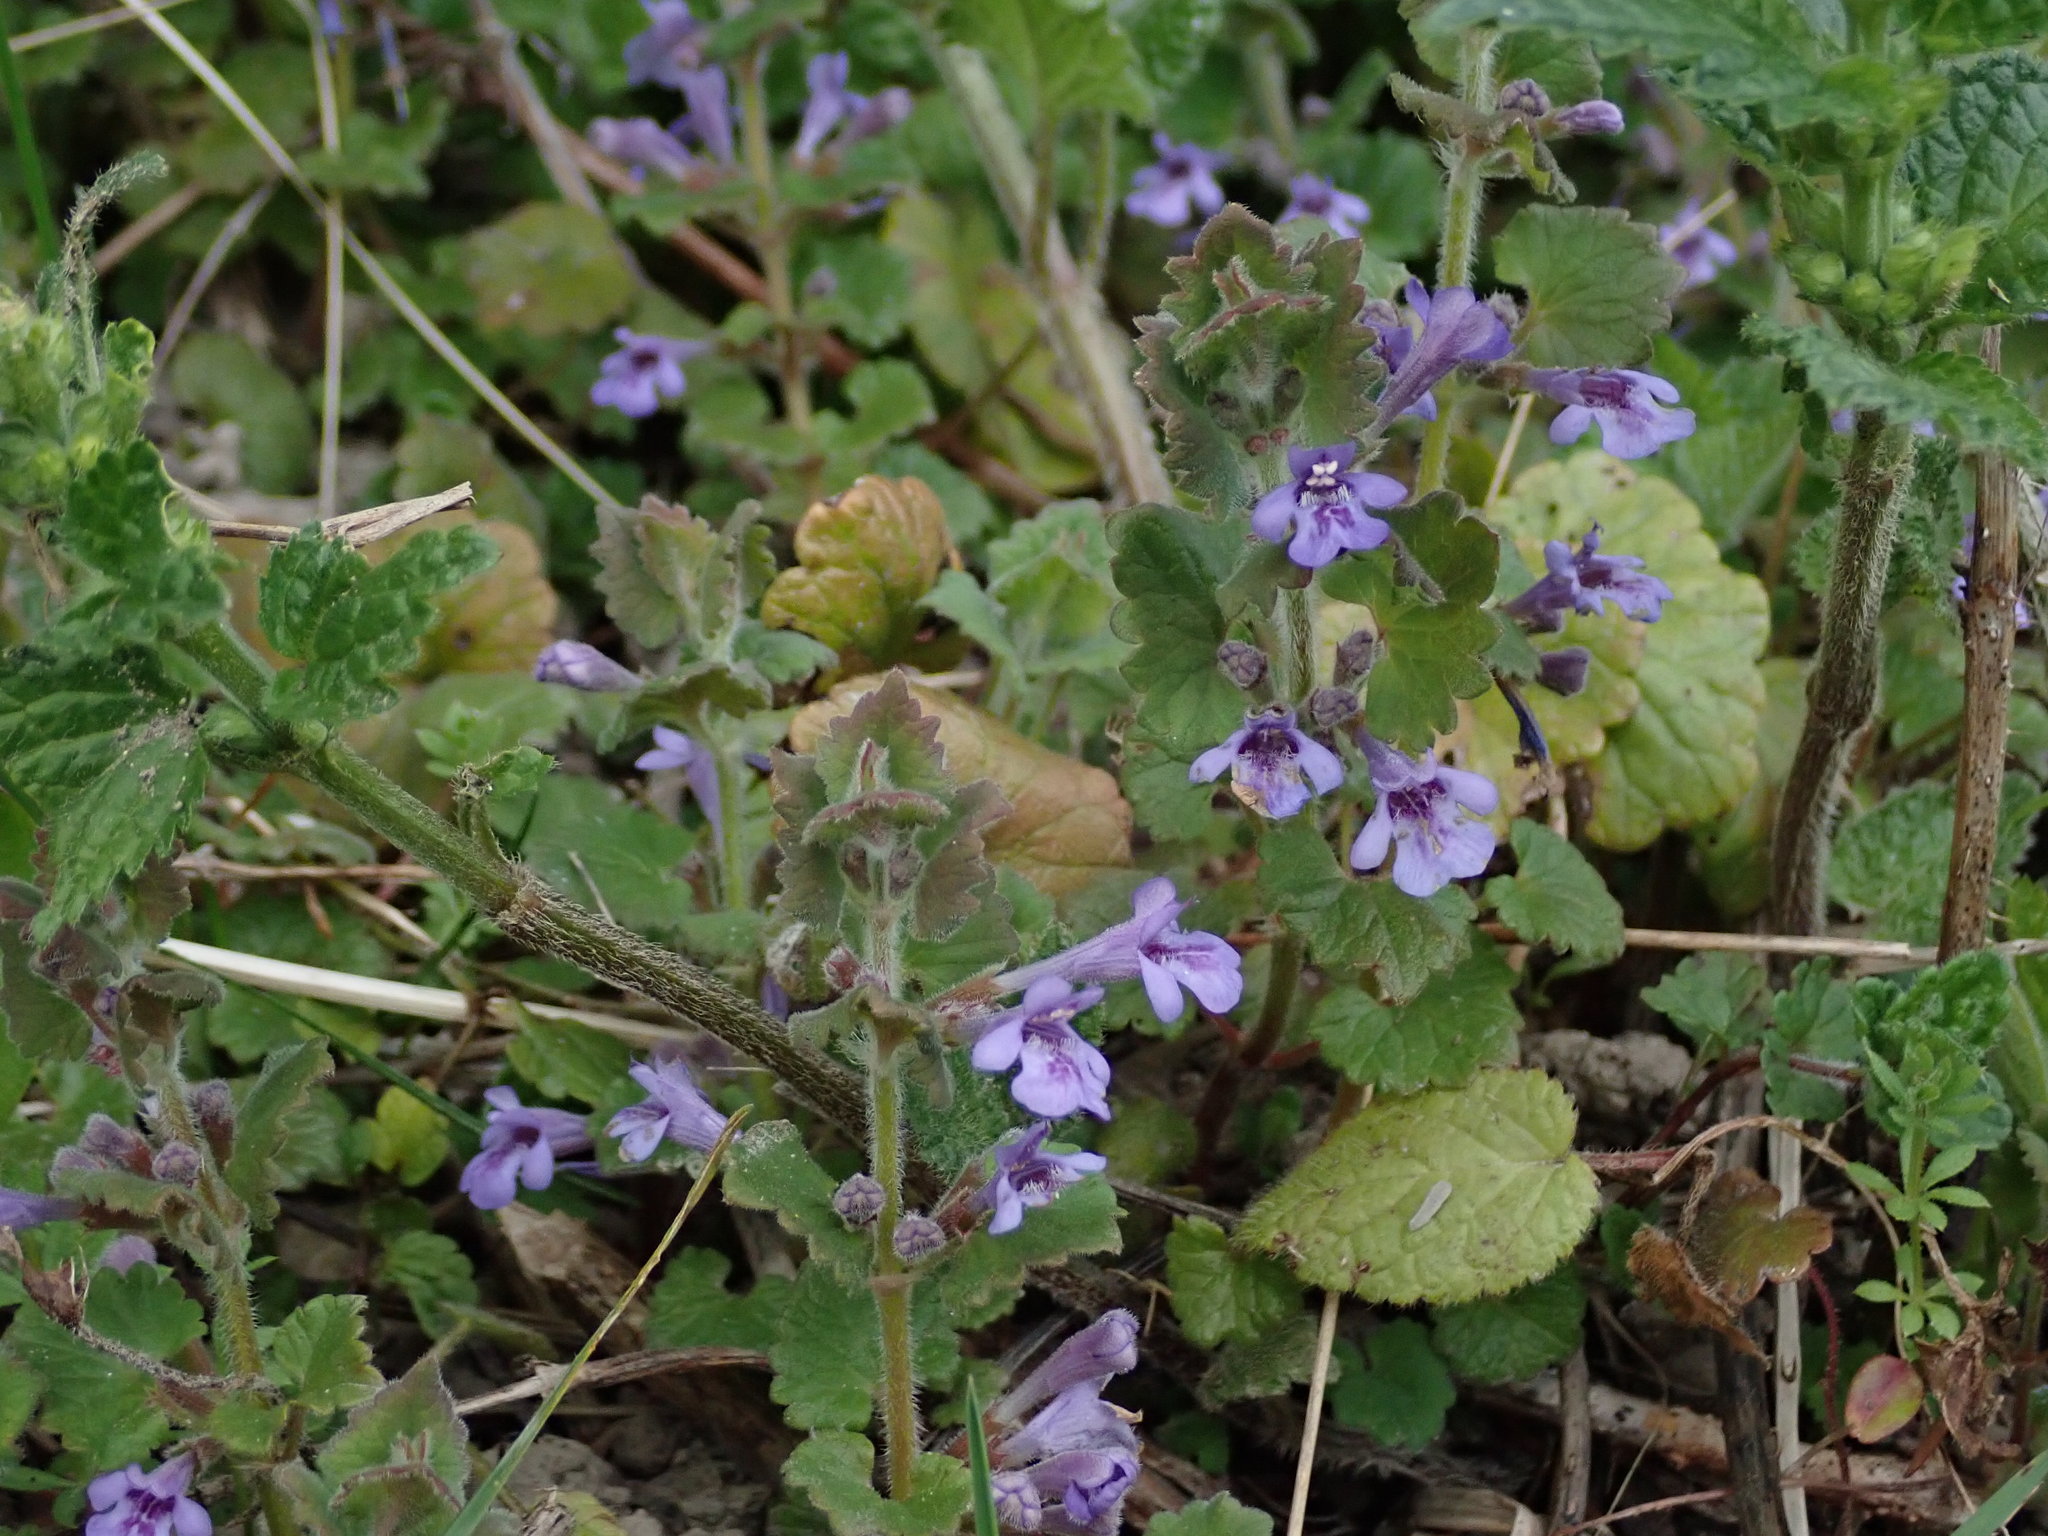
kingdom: Plantae
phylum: Tracheophyta
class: Magnoliopsida
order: Lamiales
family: Lamiaceae
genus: Glechoma
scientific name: Glechoma hederacea
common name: Ground ivy
